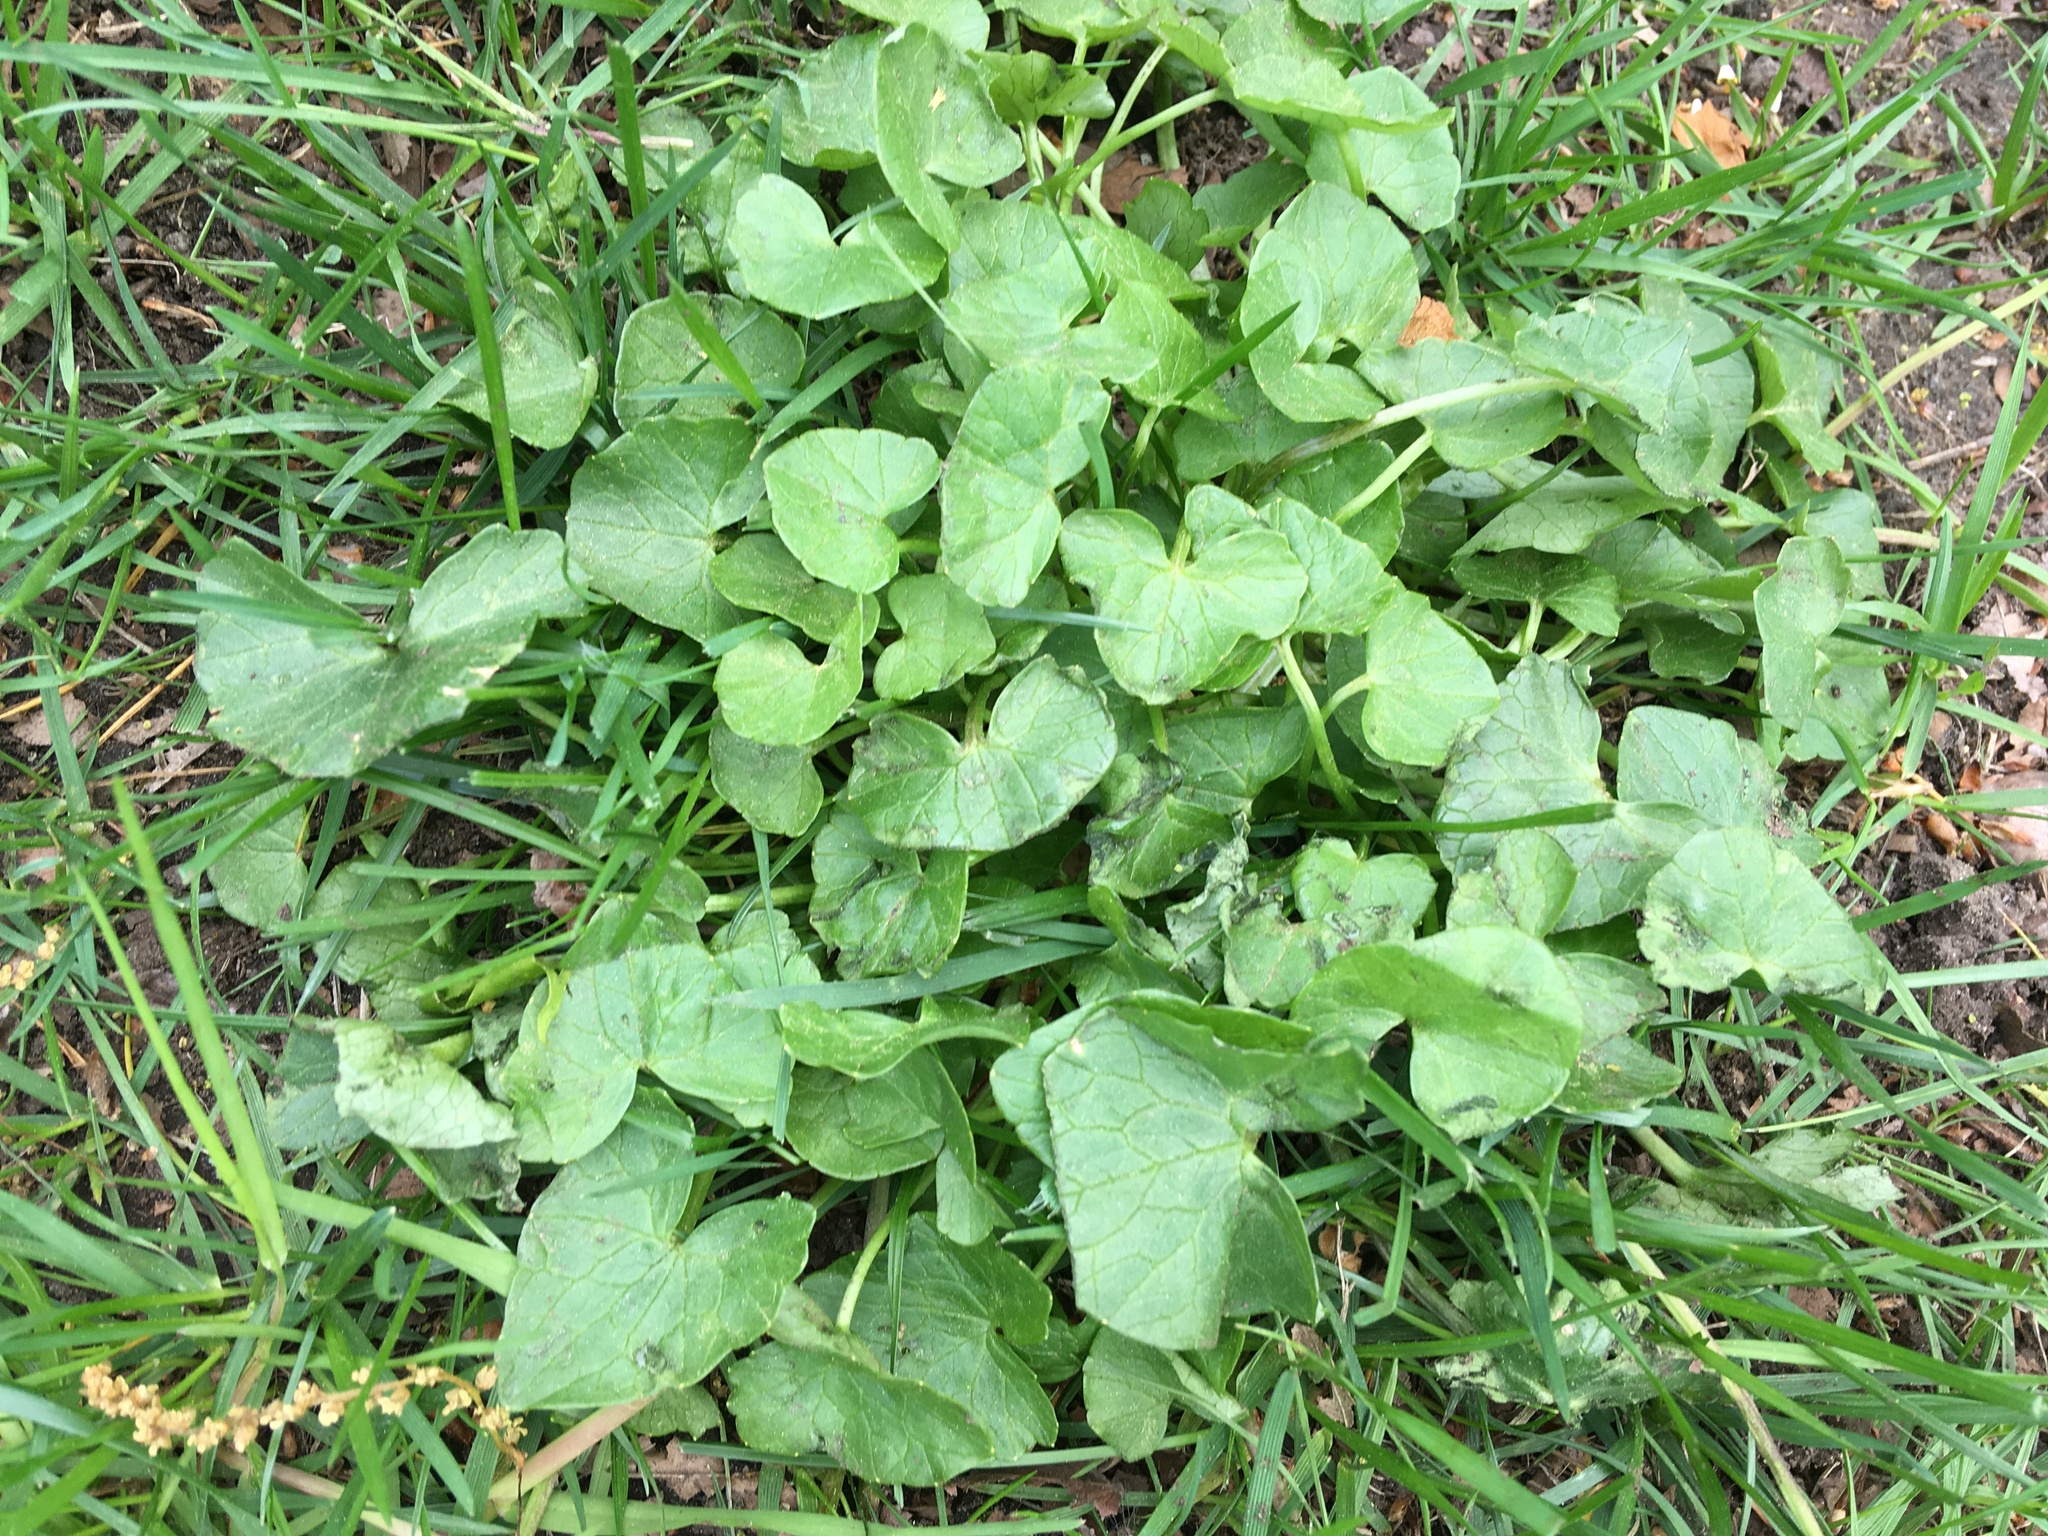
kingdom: Plantae
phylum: Tracheophyta
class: Magnoliopsida
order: Ranunculales
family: Ranunculaceae
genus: Ficaria
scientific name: Ficaria verna
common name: Lesser celandine
